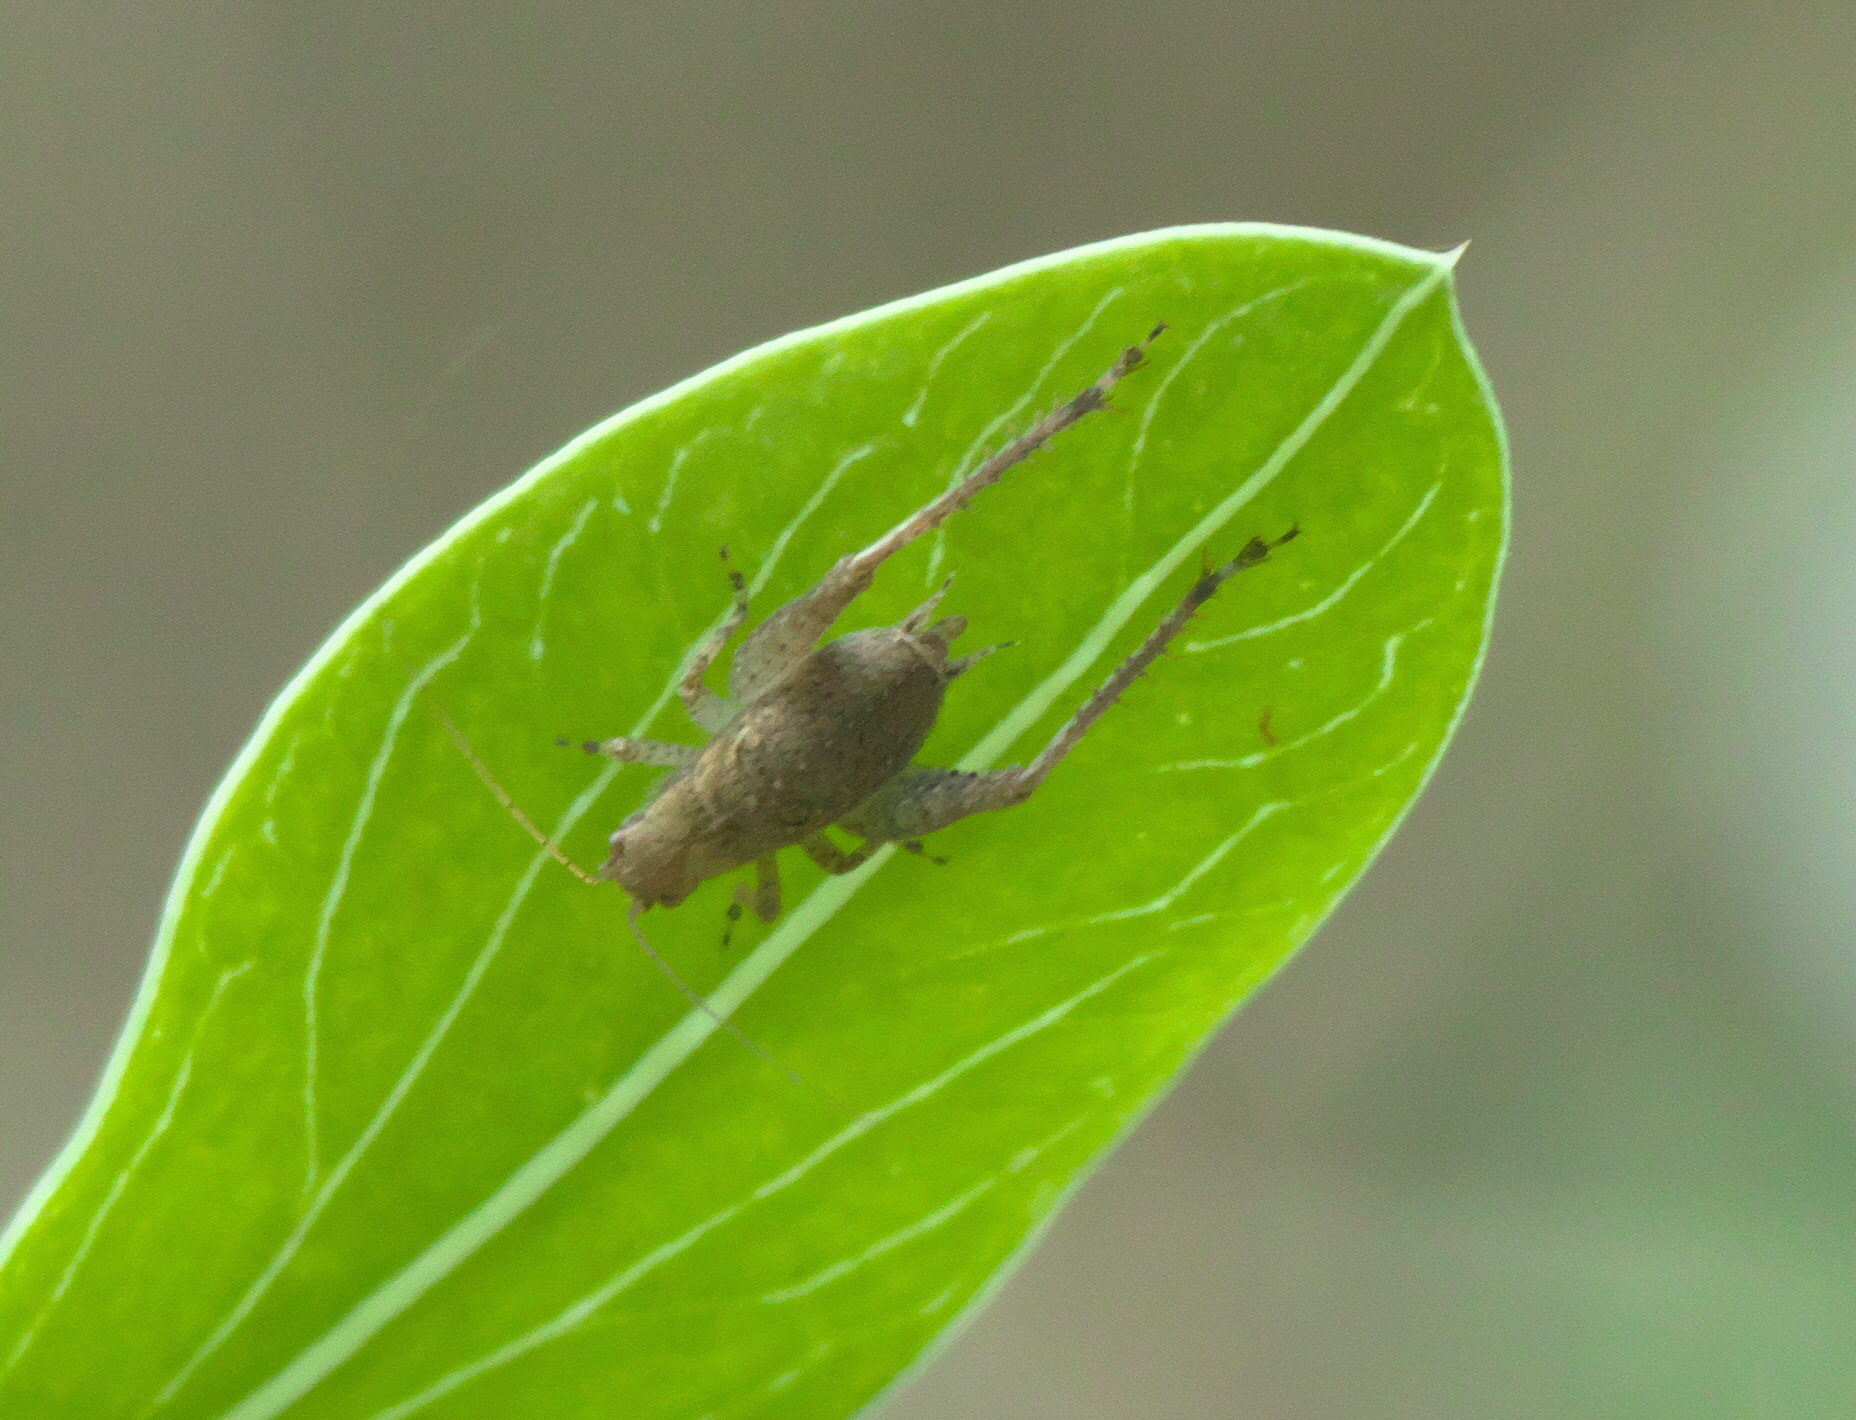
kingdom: Animalia
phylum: Arthropoda
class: Insecta
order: Orthoptera
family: Gryllidae
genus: Hapithus
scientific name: Hapithus agitator
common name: Restless bush cricket
